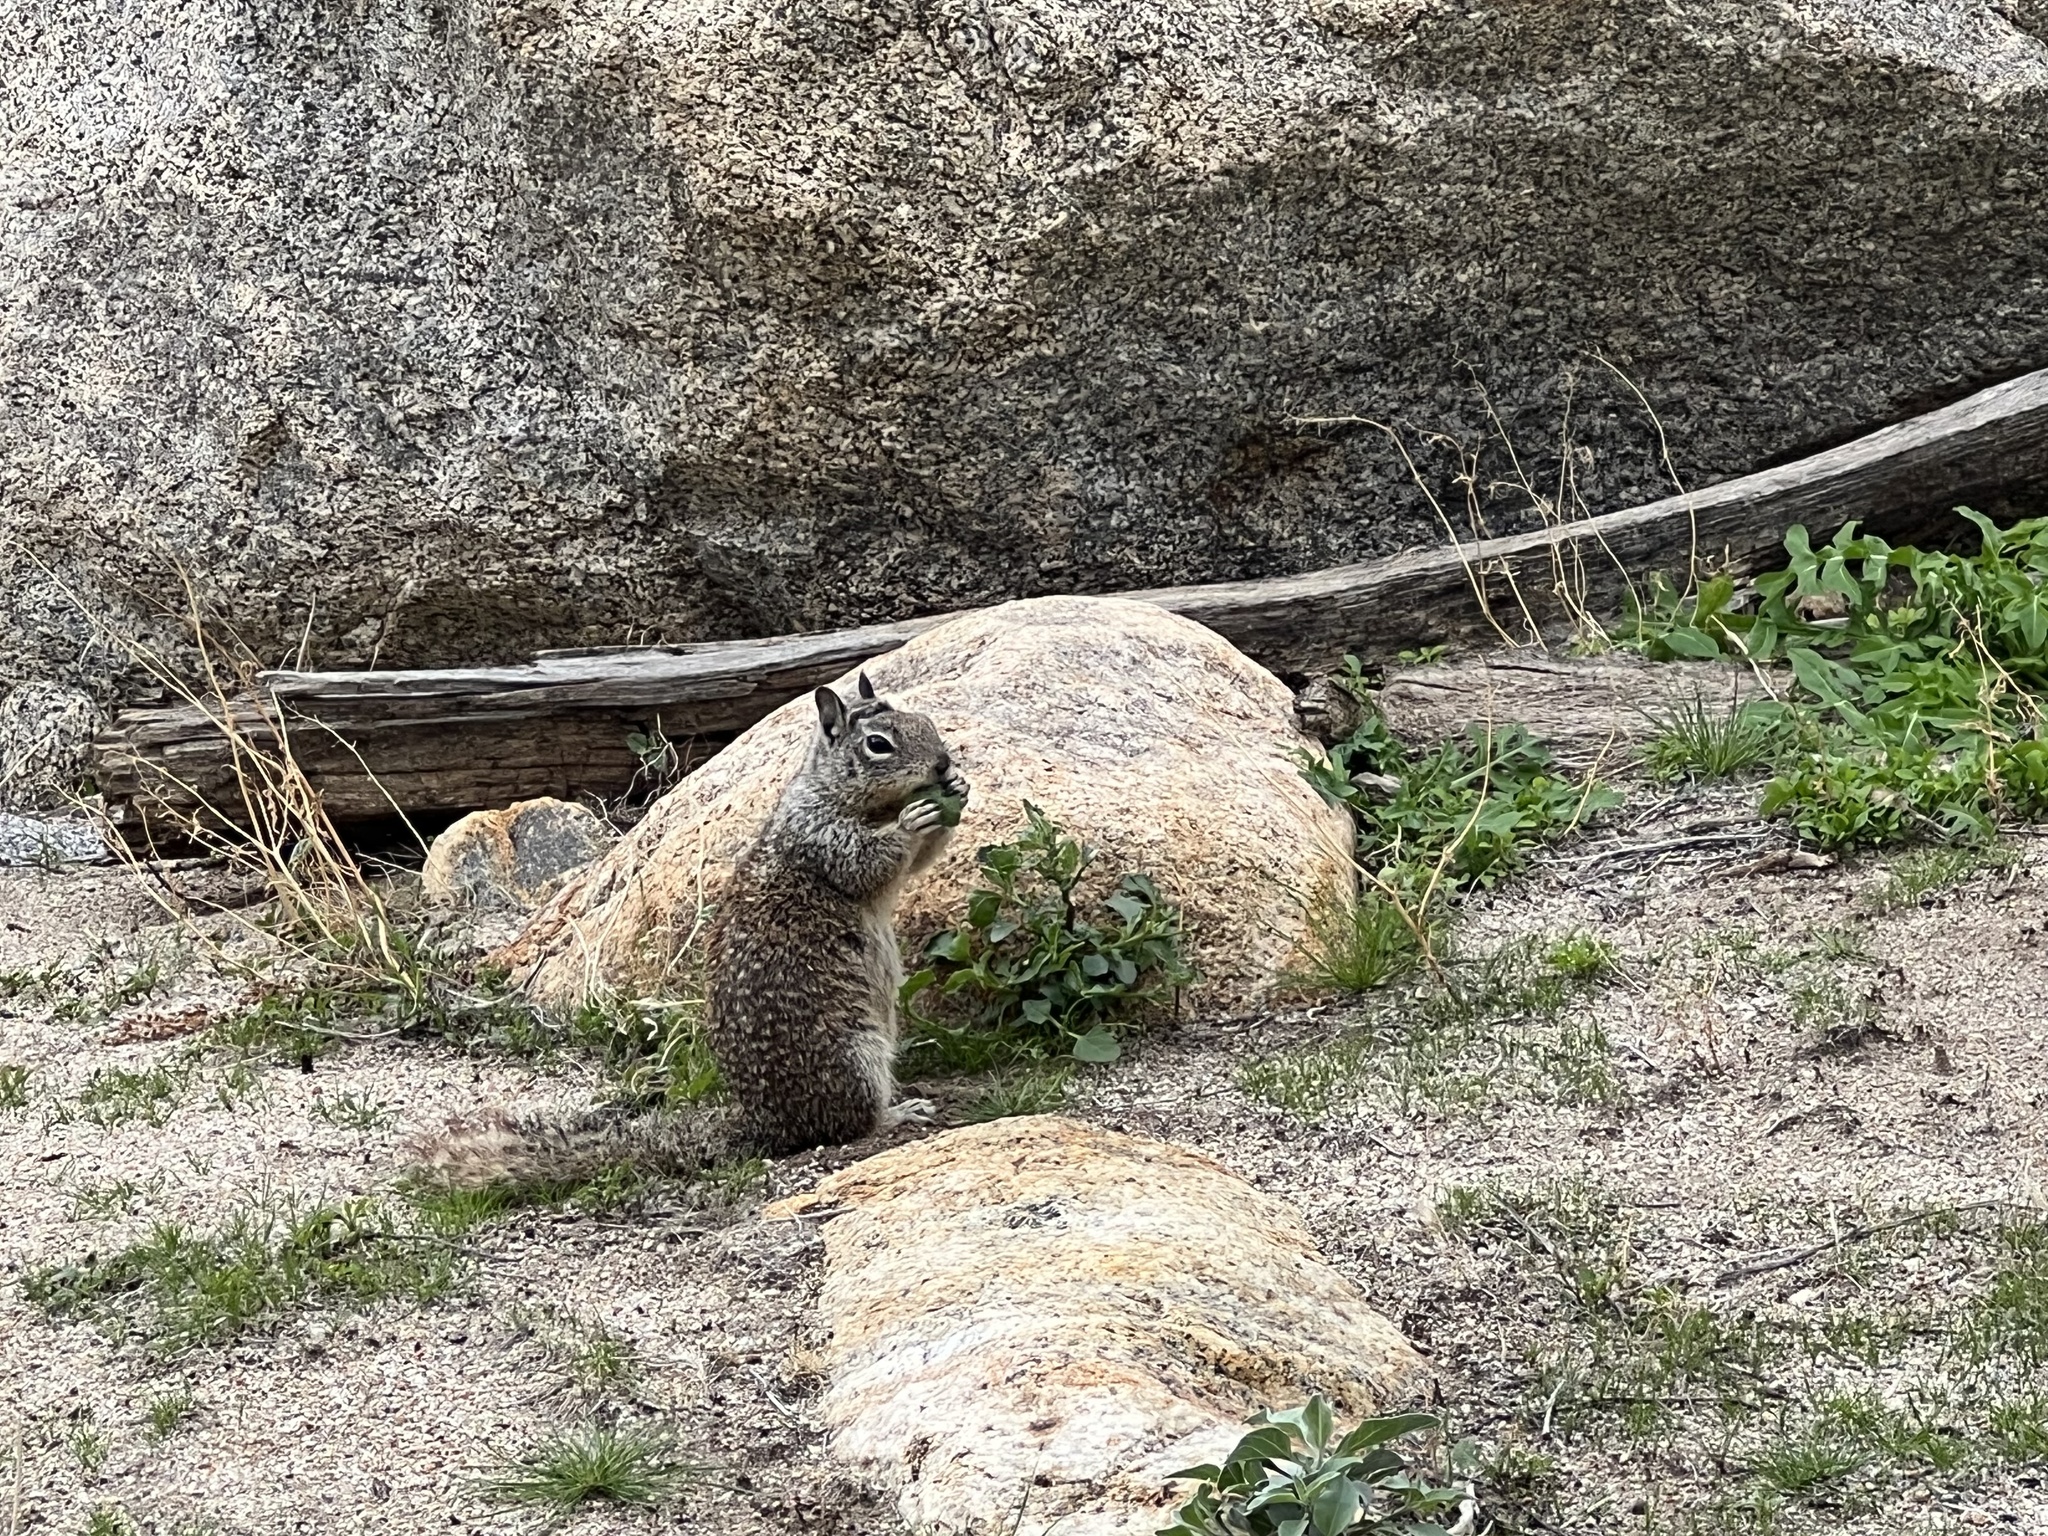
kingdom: Animalia
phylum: Chordata
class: Mammalia
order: Rodentia
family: Sciuridae
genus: Otospermophilus
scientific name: Otospermophilus beecheyi
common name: California ground squirrel
